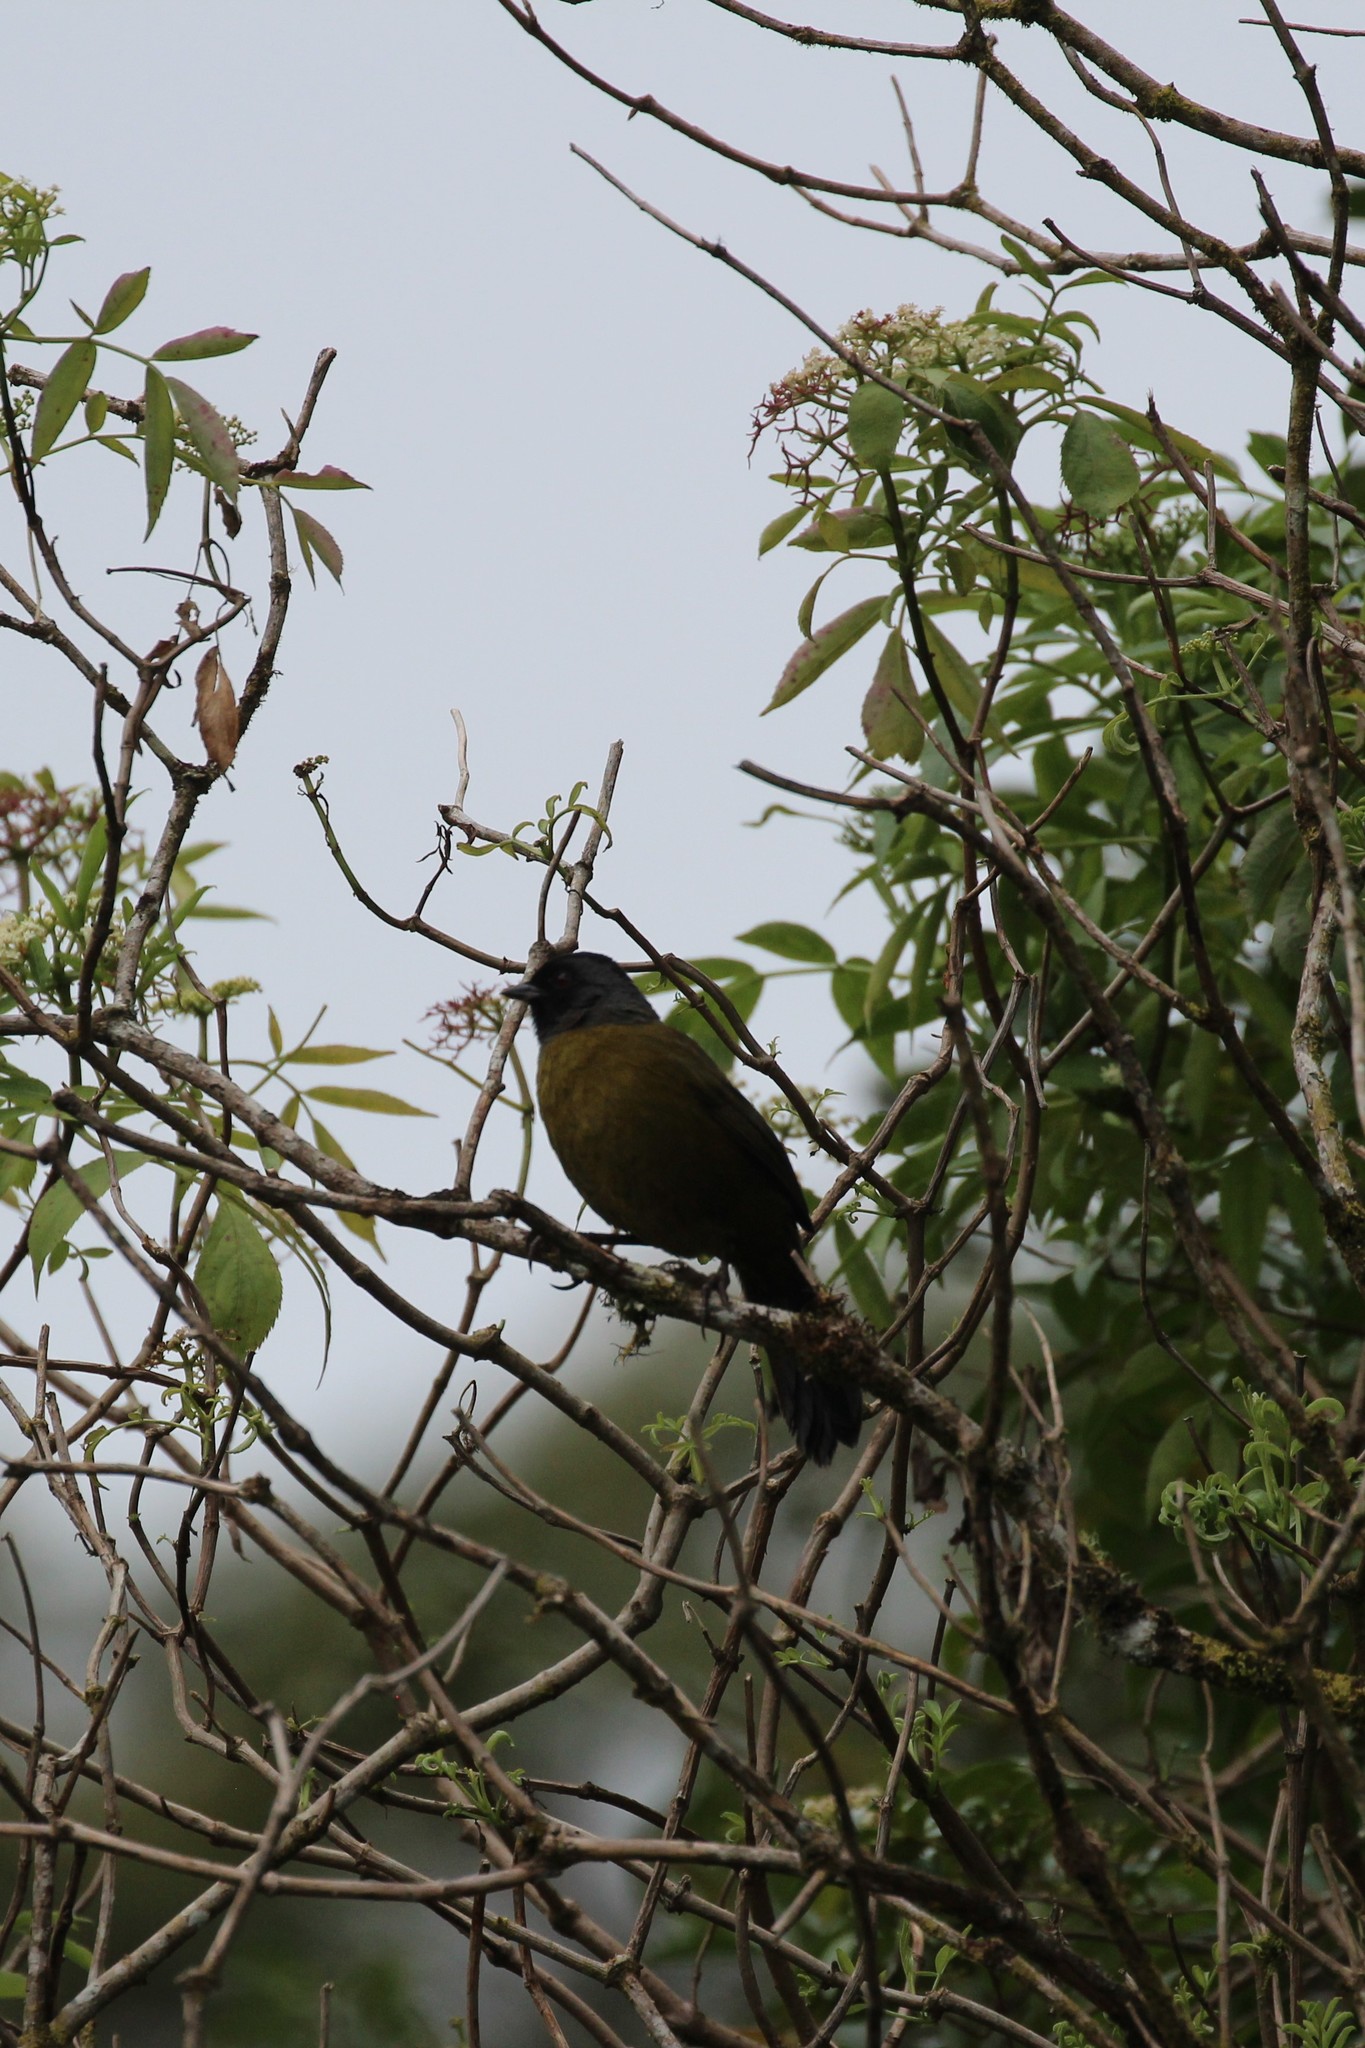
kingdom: Animalia
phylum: Chordata
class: Aves
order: Passeriformes
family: Passerellidae
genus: Pezopetes
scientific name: Pezopetes capitalis
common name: Large-footed finch
